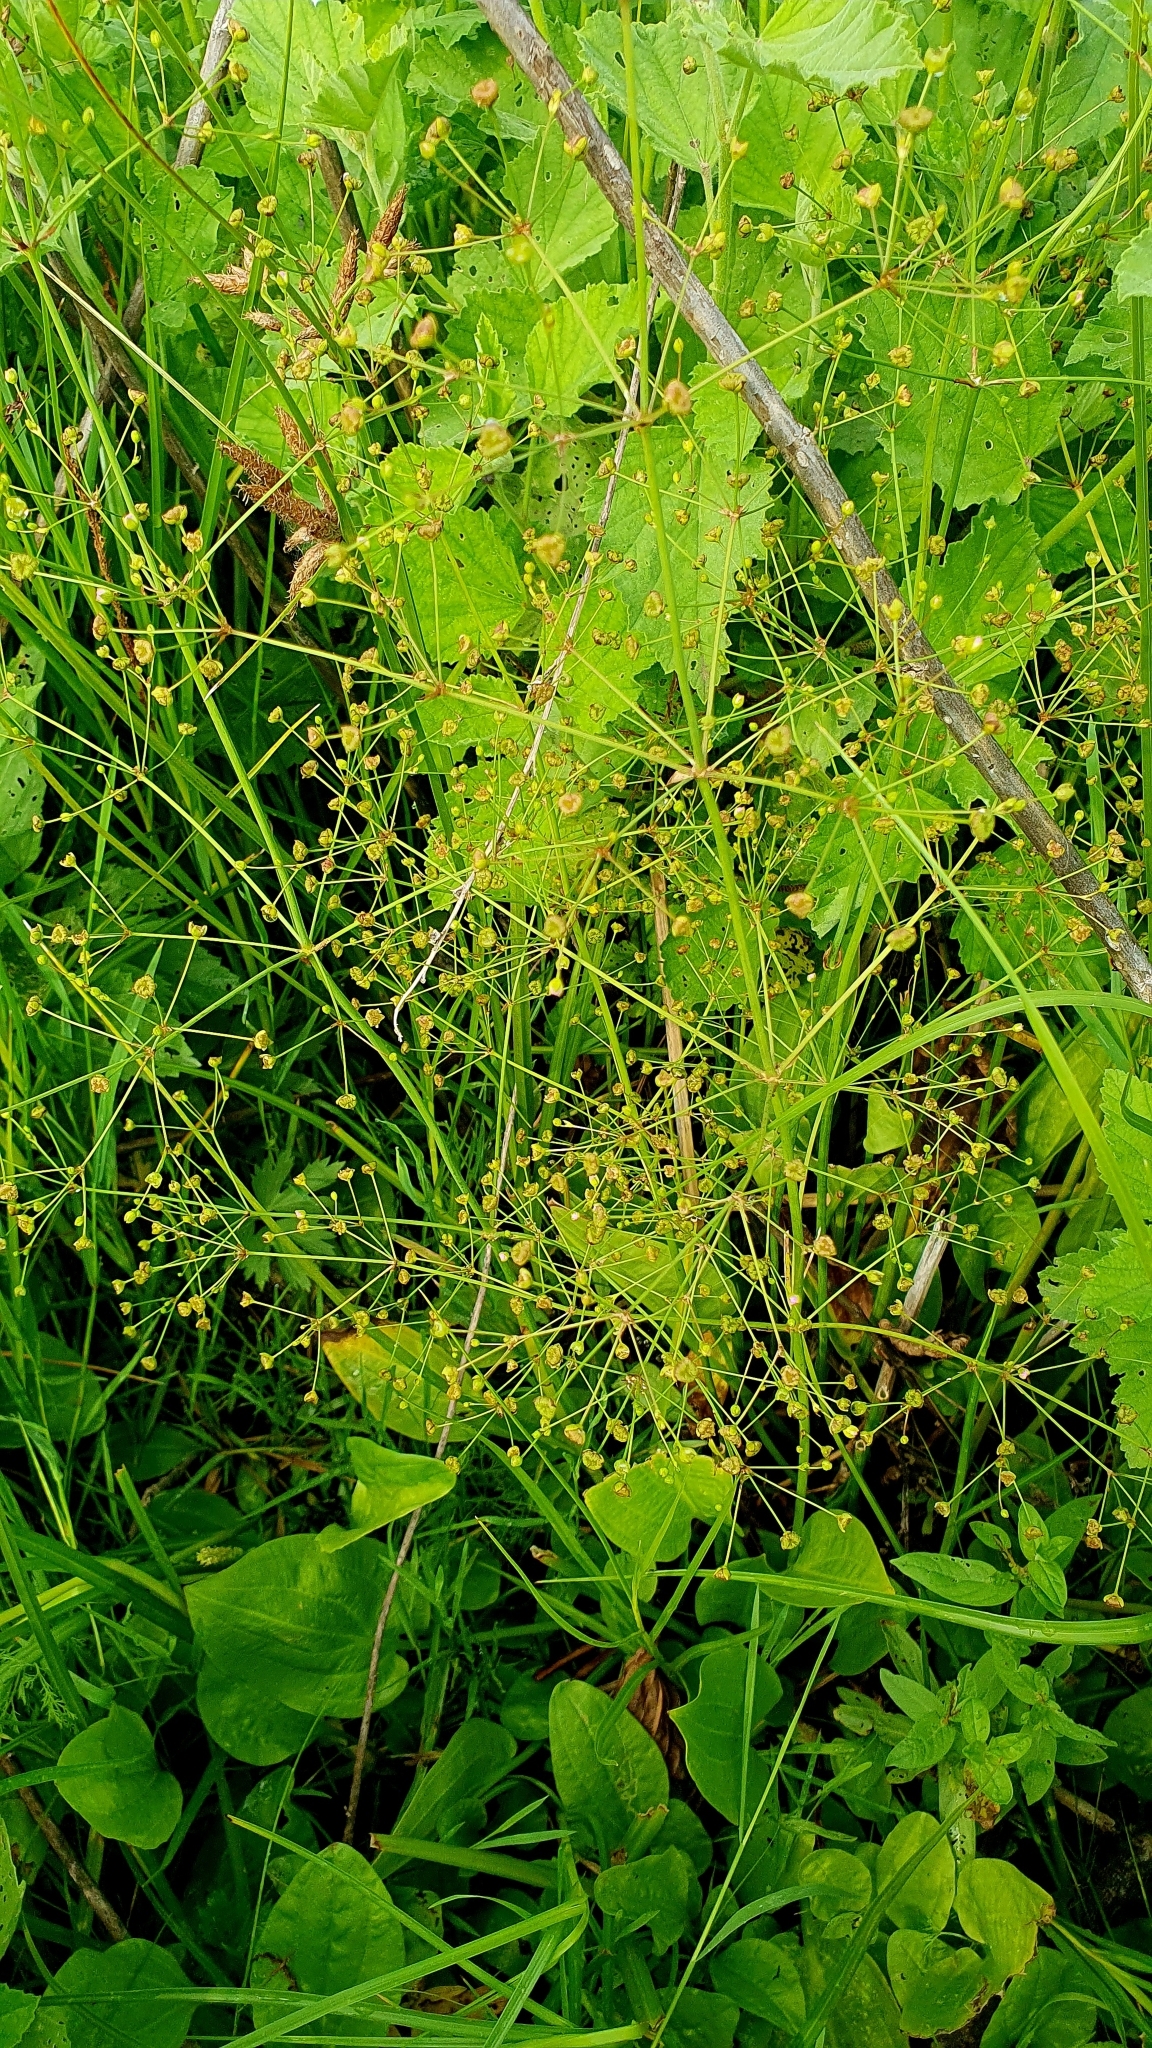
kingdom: Plantae
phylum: Tracheophyta
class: Liliopsida
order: Alismatales
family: Alismataceae
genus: Alisma
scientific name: Alisma plantago-aquatica
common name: Water-plantain
